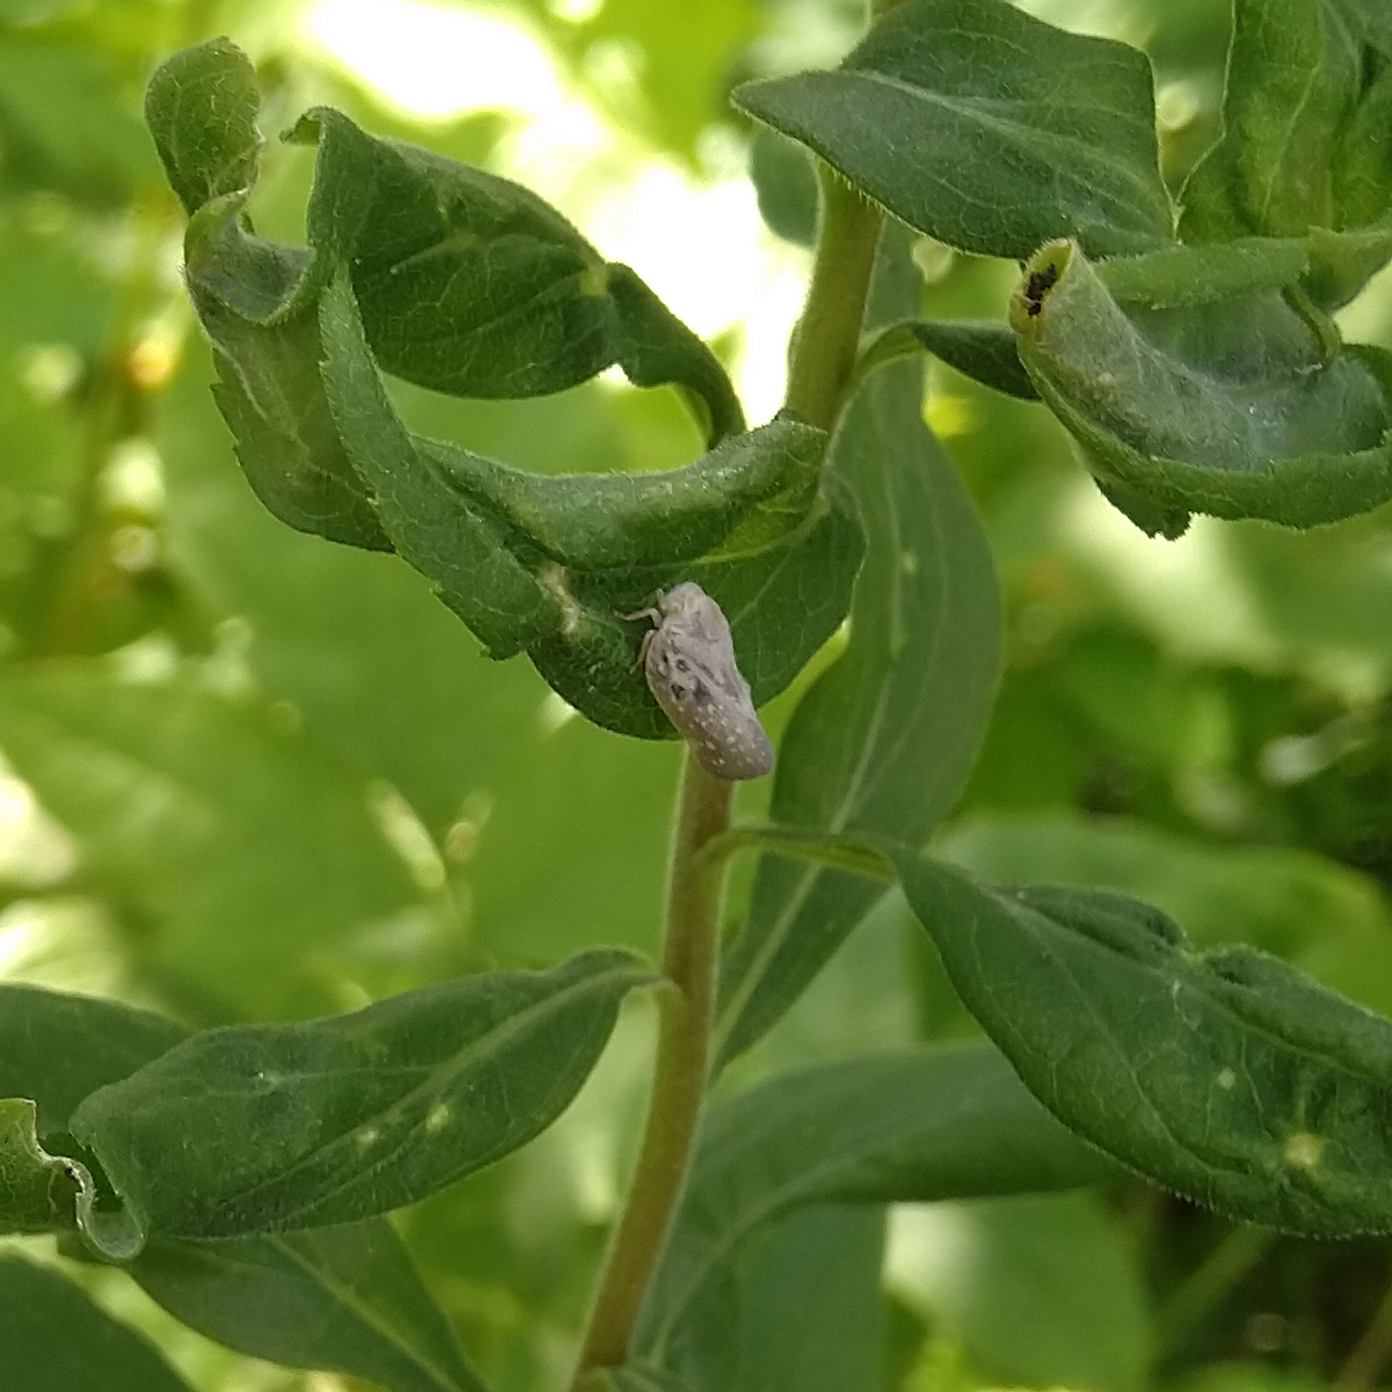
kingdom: Animalia
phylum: Arthropoda
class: Insecta
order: Hemiptera
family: Flatidae
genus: Metcalfa
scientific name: Metcalfa pruinosa
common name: Citrus flatid planthopper
